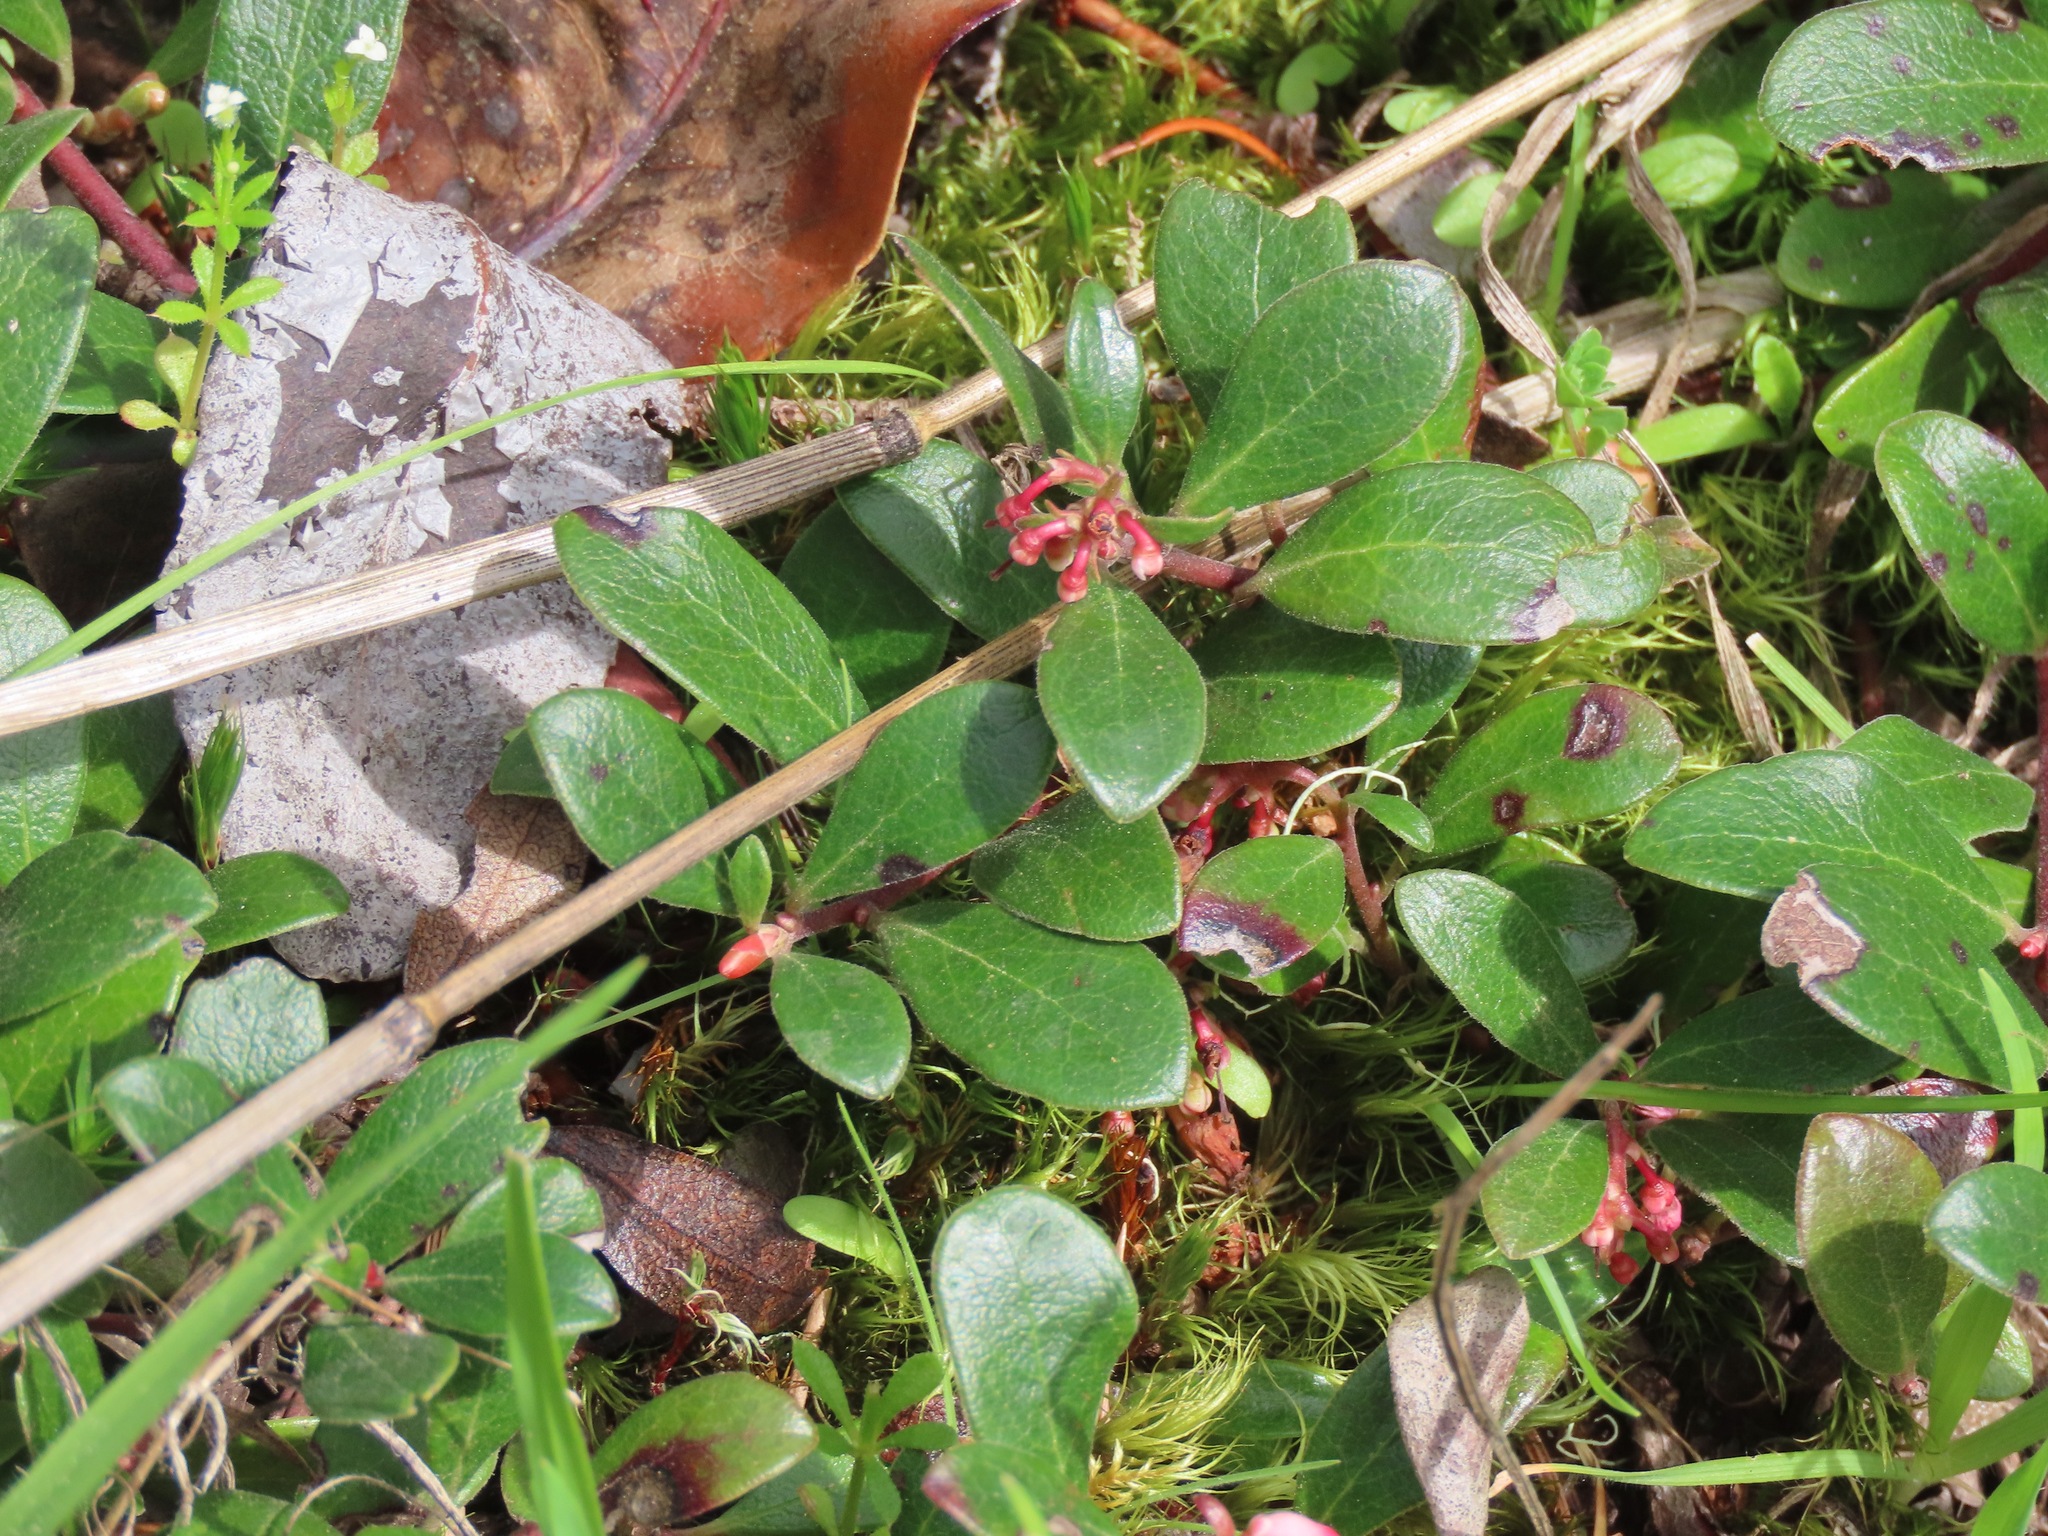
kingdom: Plantae
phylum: Tracheophyta
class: Magnoliopsida
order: Ericales
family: Ericaceae
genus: Arctostaphylos
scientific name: Arctostaphylos uva-ursi
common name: Bearberry
